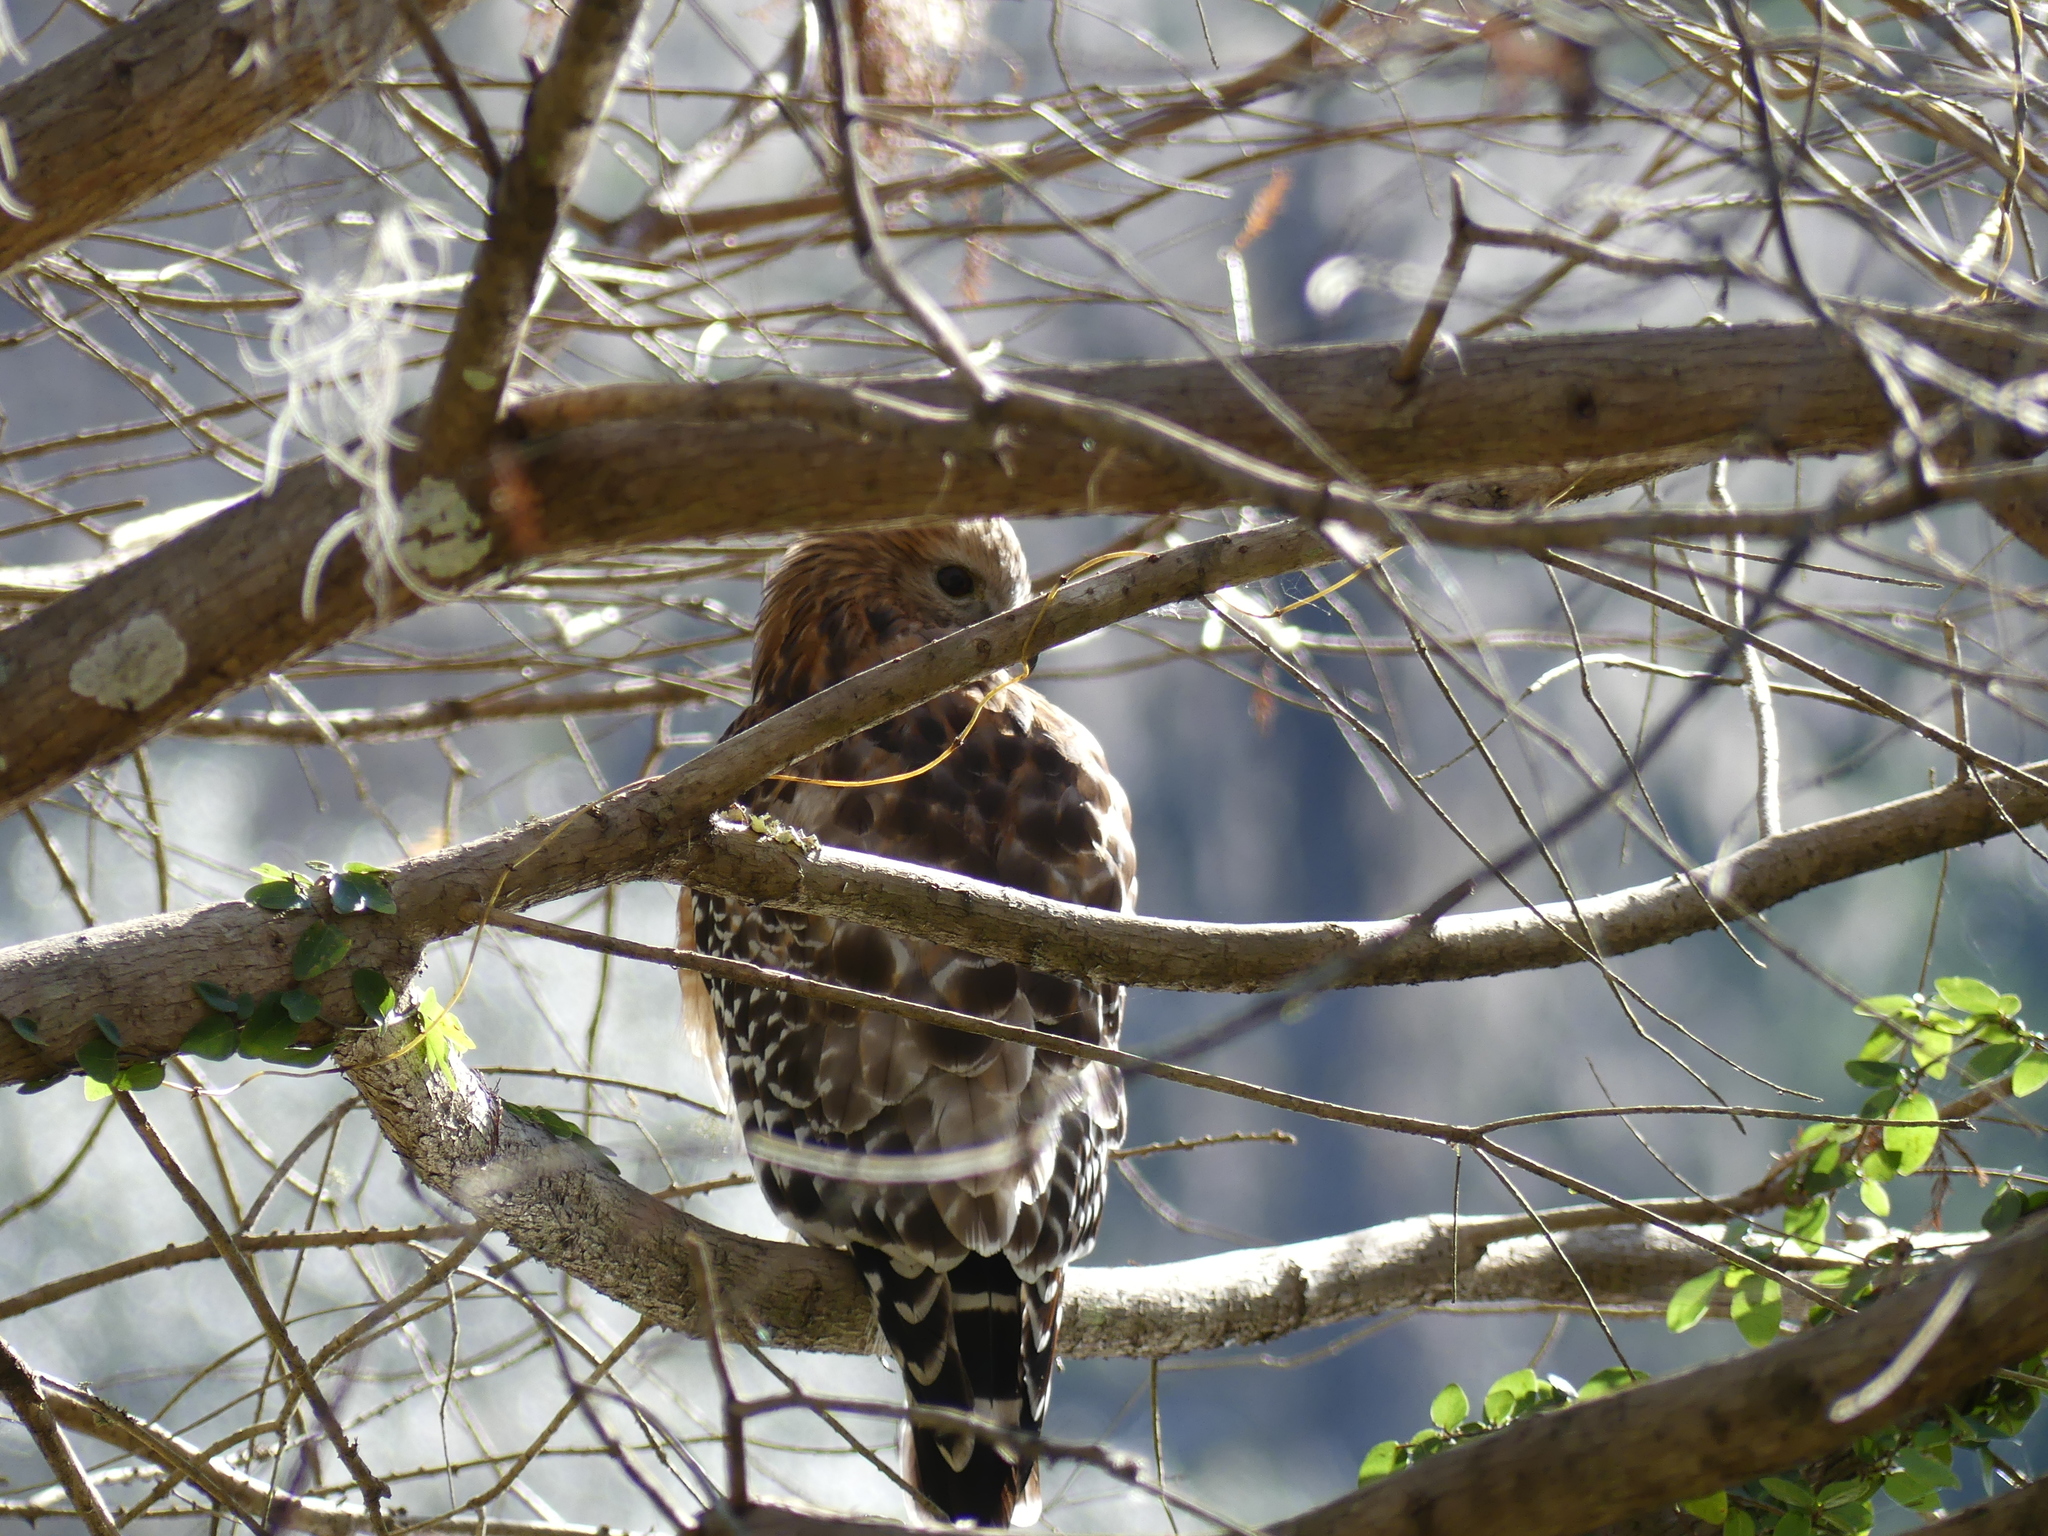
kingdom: Animalia
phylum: Chordata
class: Aves
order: Accipitriformes
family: Accipitridae
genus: Buteo
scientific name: Buteo lineatus
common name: Red-shouldered hawk
